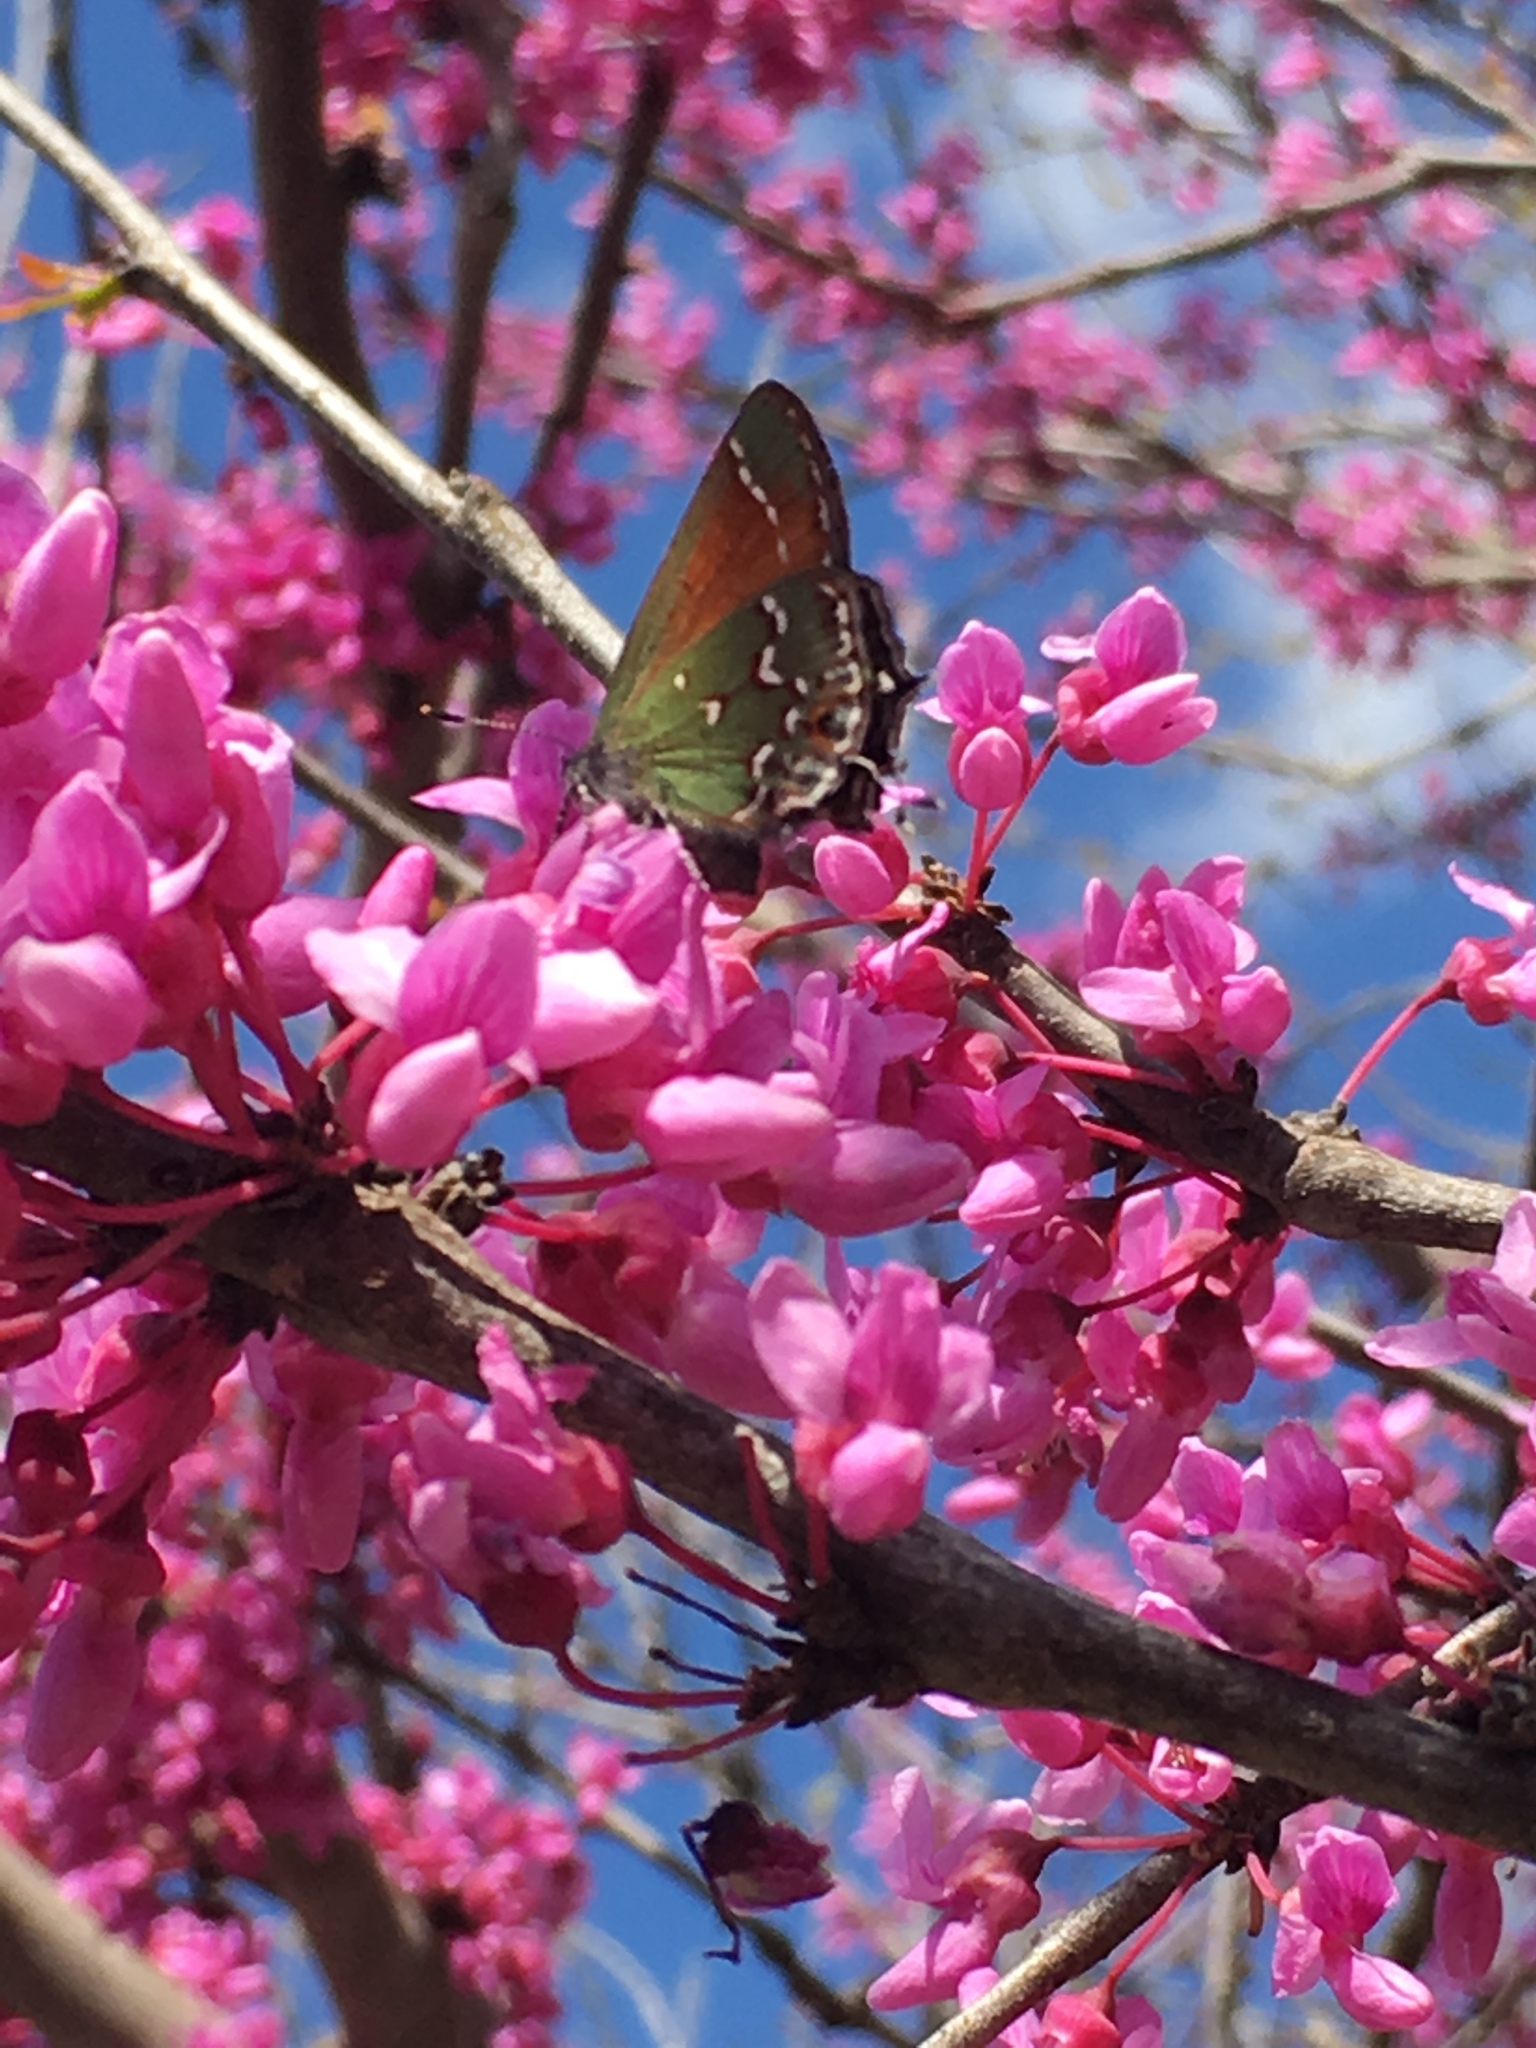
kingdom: Animalia
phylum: Arthropoda
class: Insecta
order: Lepidoptera
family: Lycaenidae
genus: Mitoura
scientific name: Mitoura gryneus
